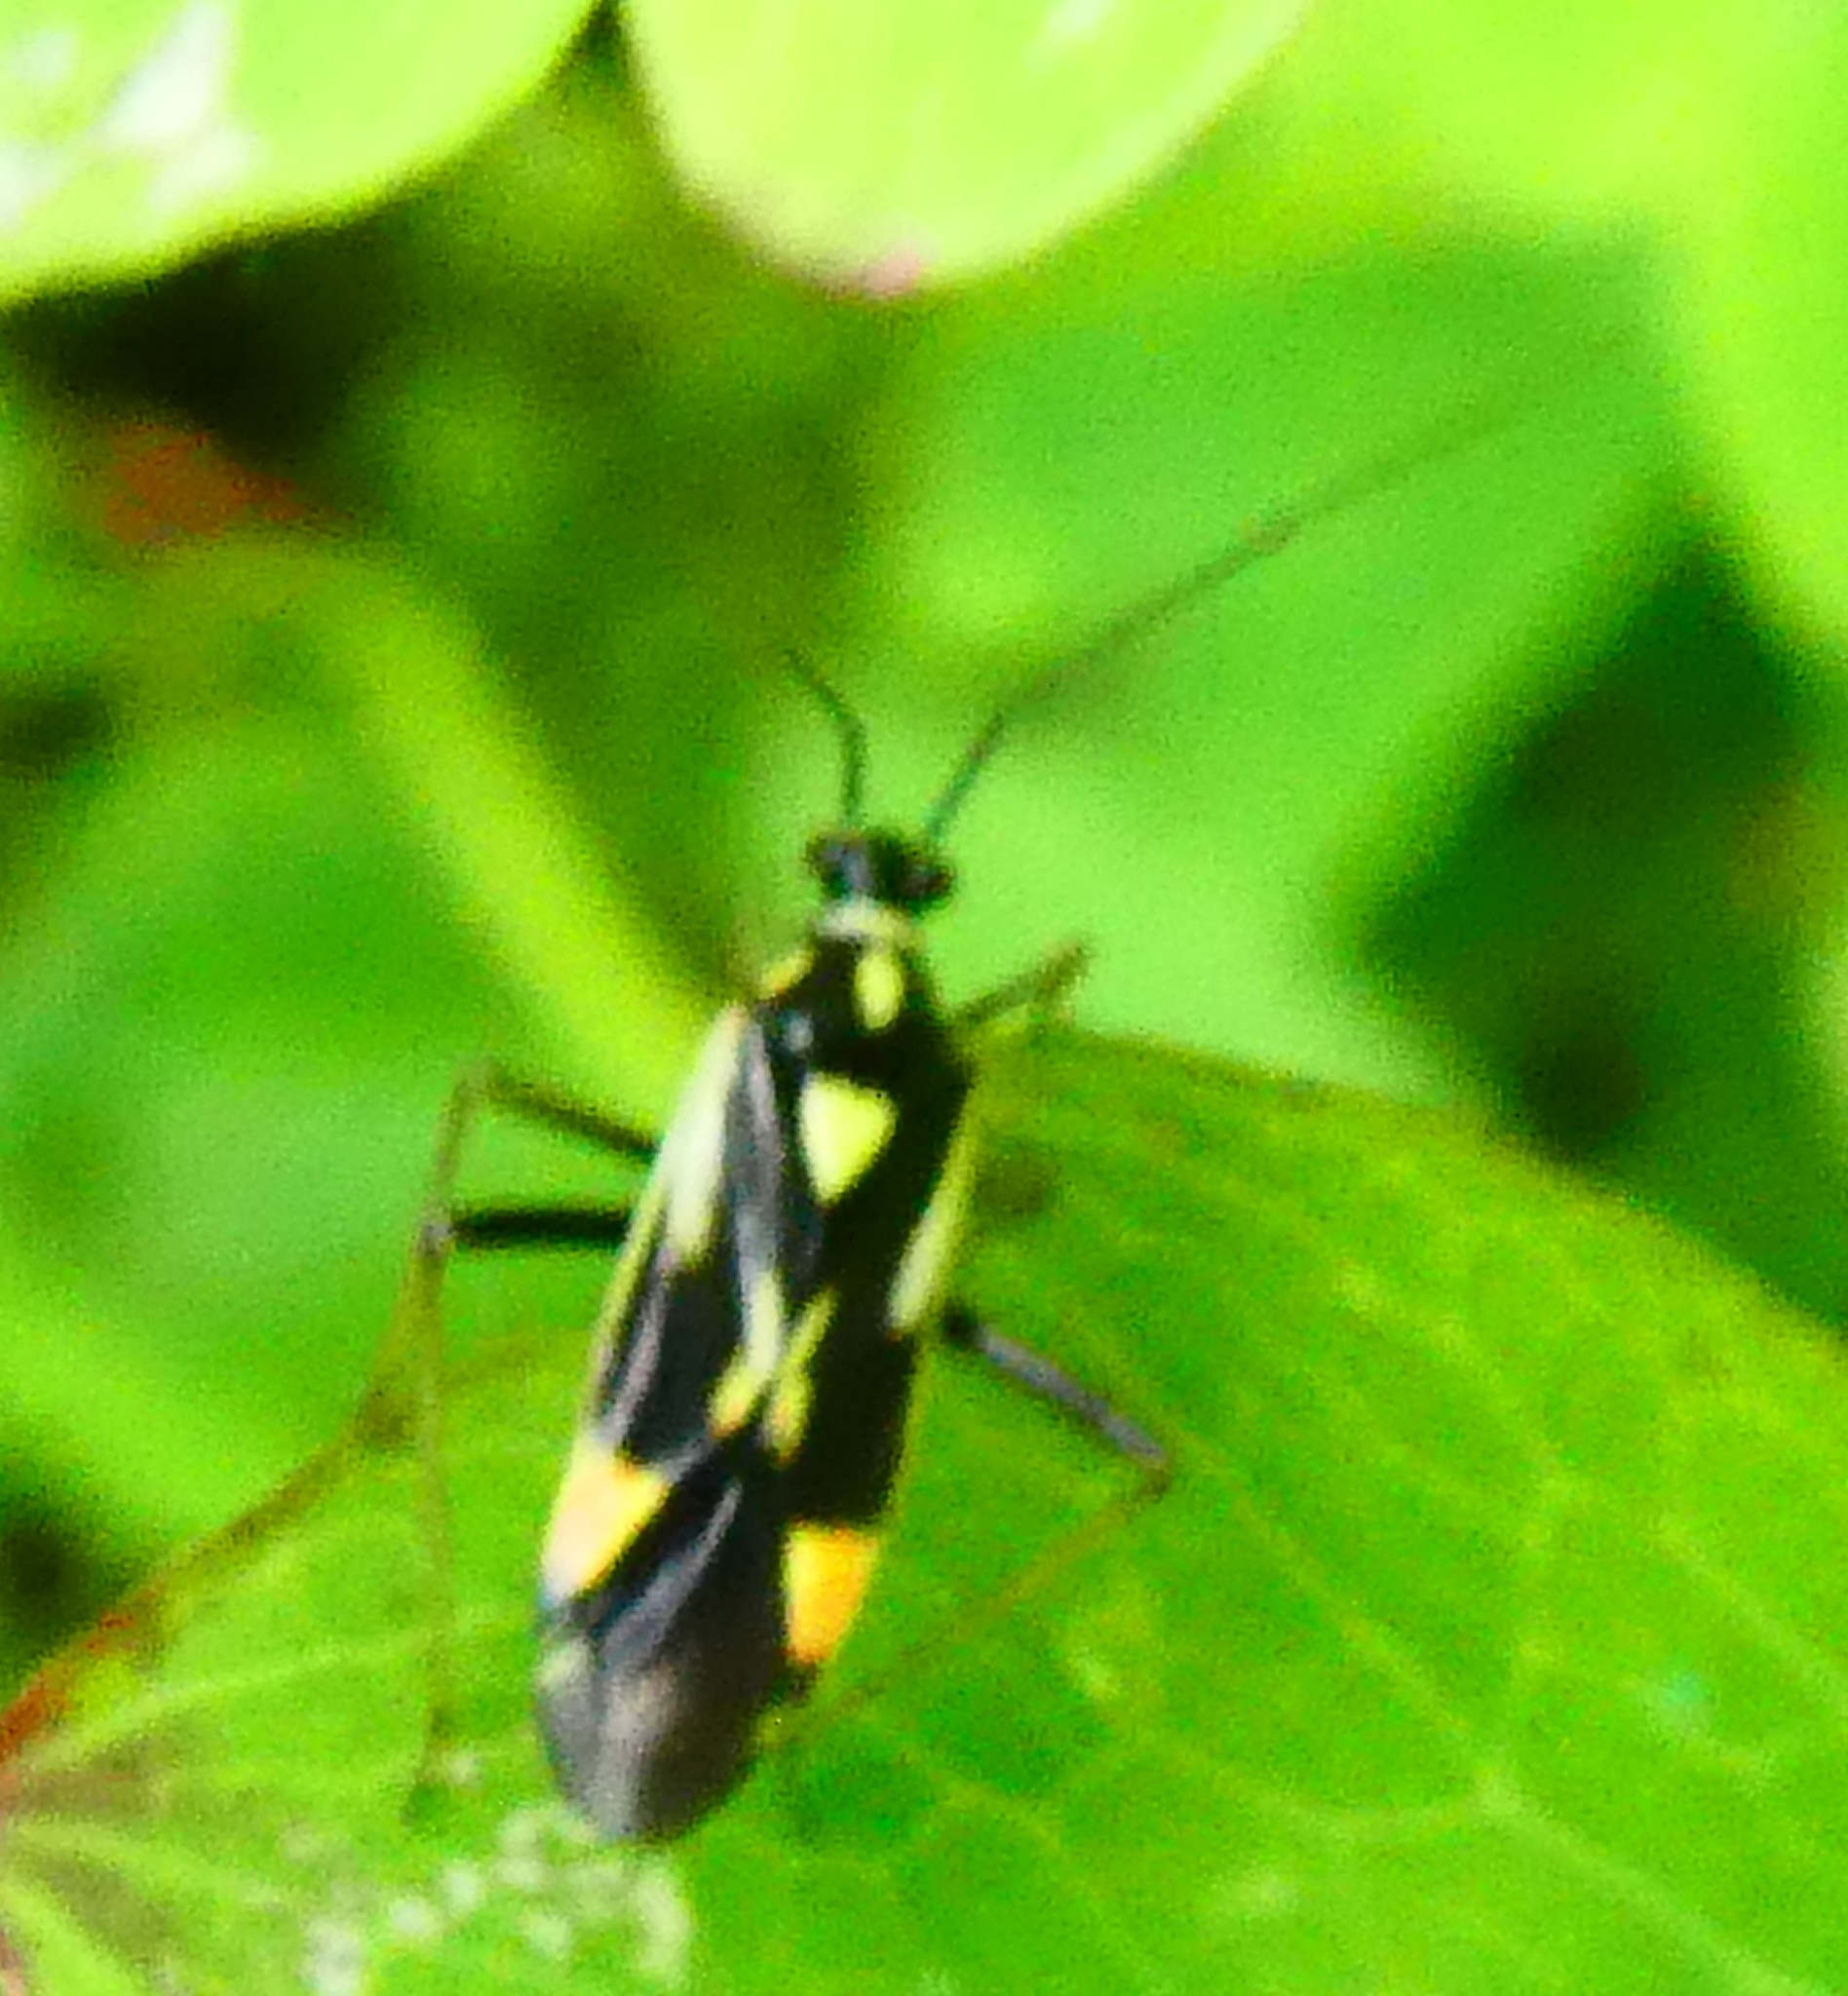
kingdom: Animalia
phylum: Arthropoda
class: Insecta
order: Hemiptera
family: Miridae
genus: Grypocoris
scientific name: Grypocoris stysi
